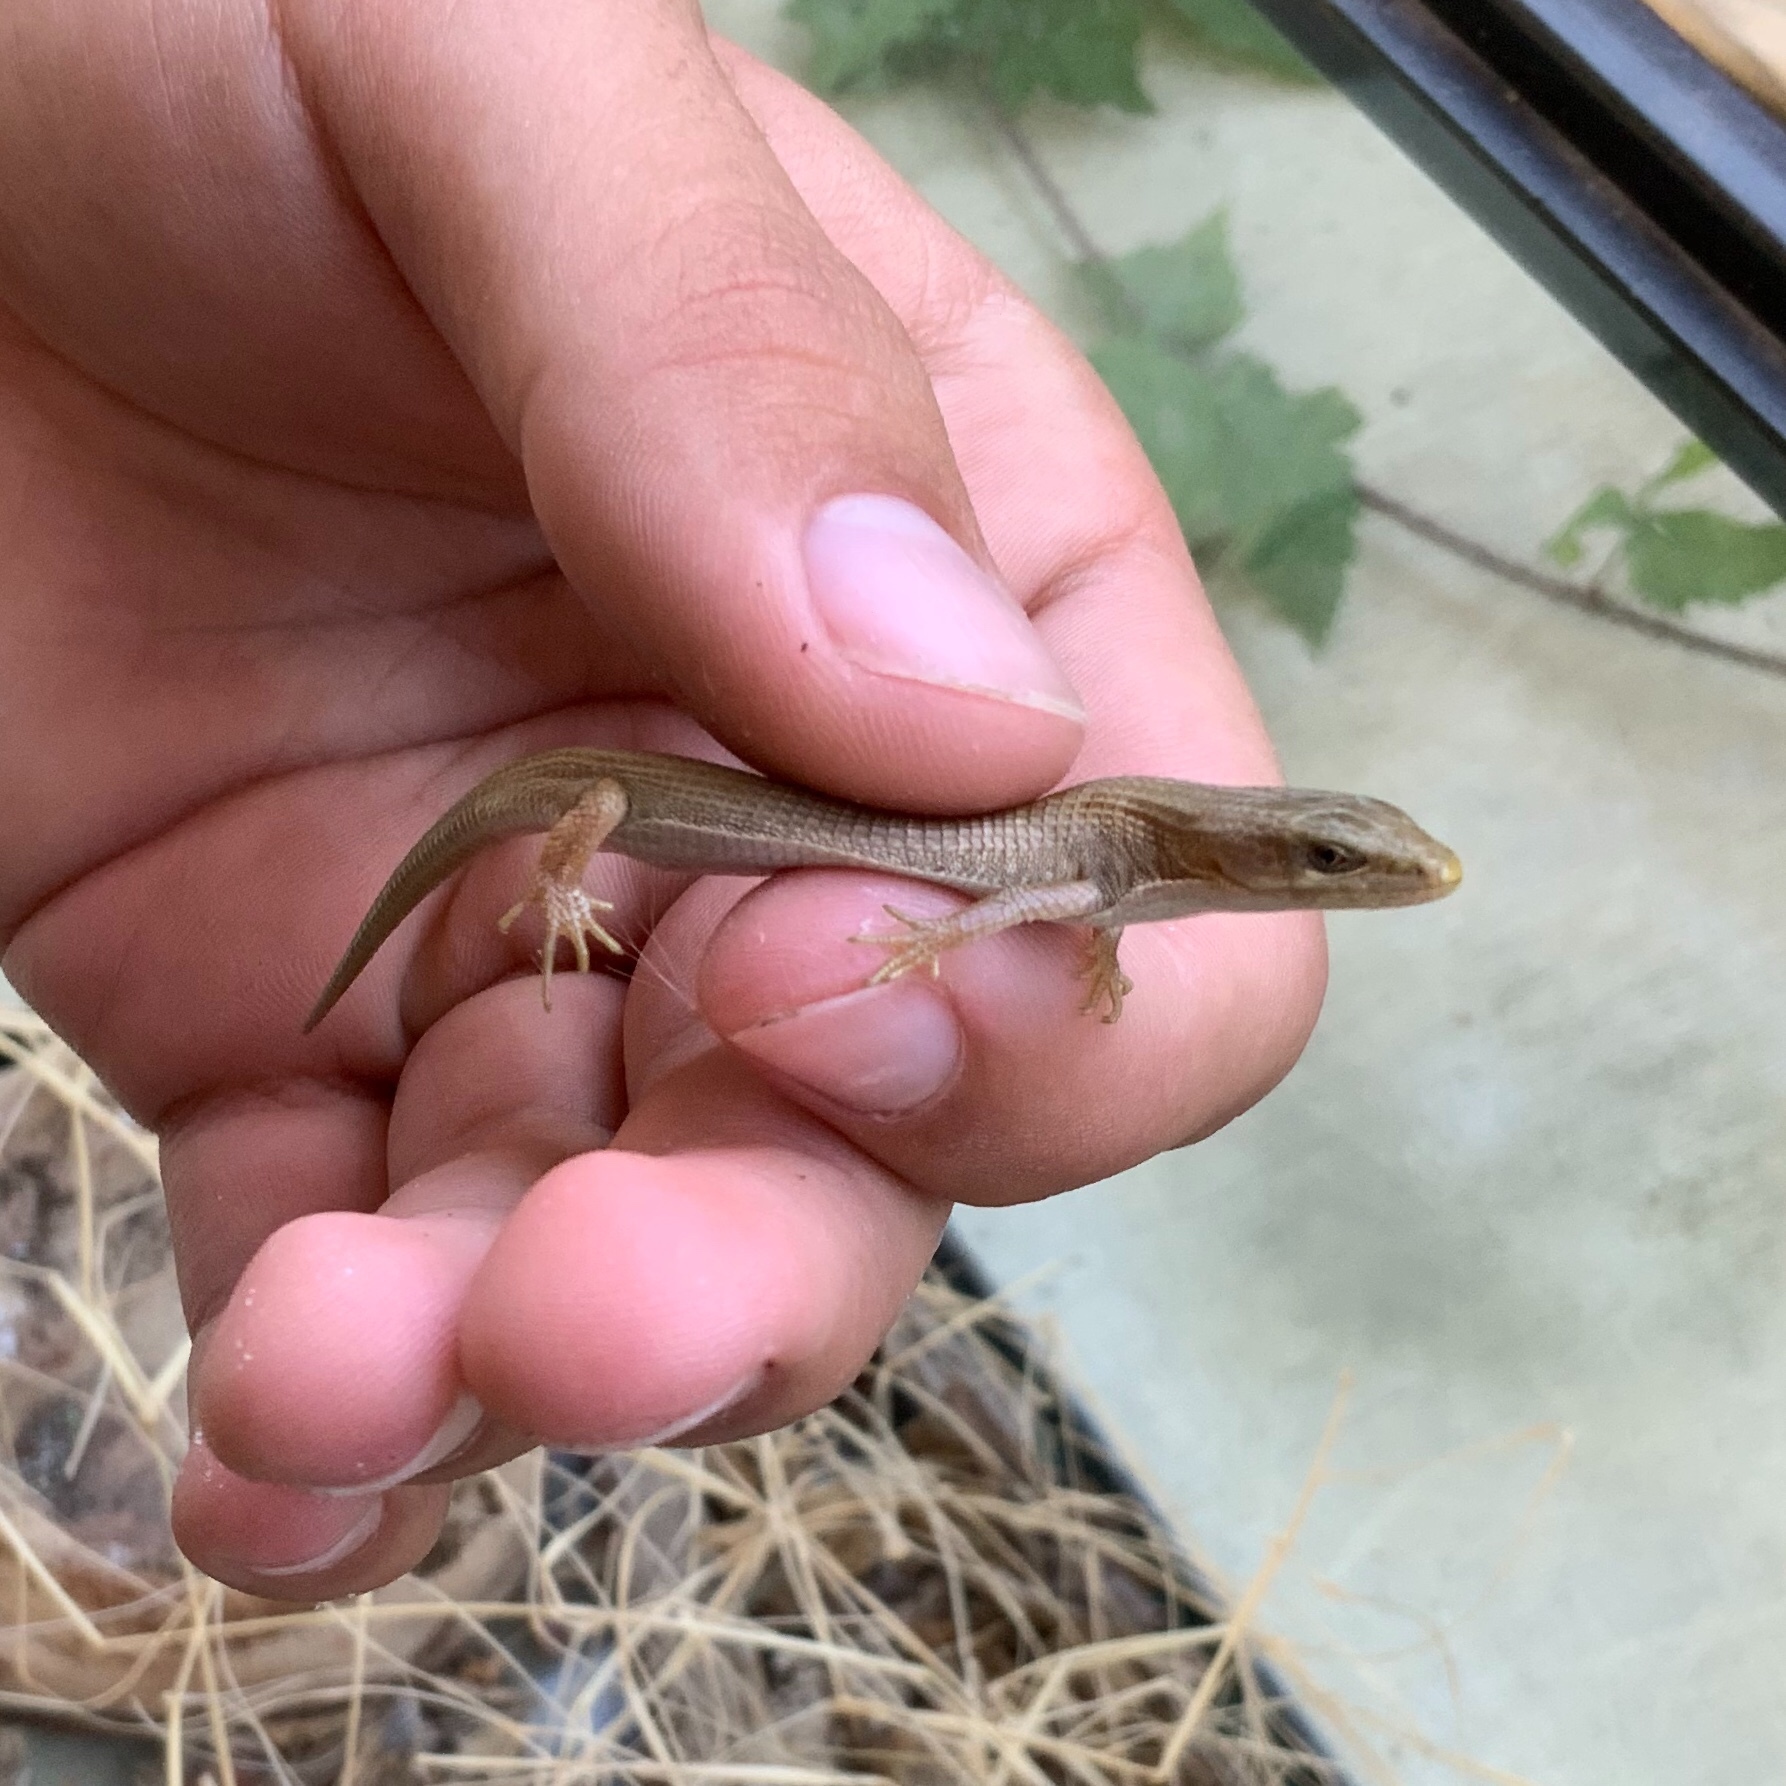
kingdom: Animalia
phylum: Chordata
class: Squamata
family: Anguidae
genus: Elgaria
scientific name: Elgaria multicarinata
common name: Southern alligator lizard
